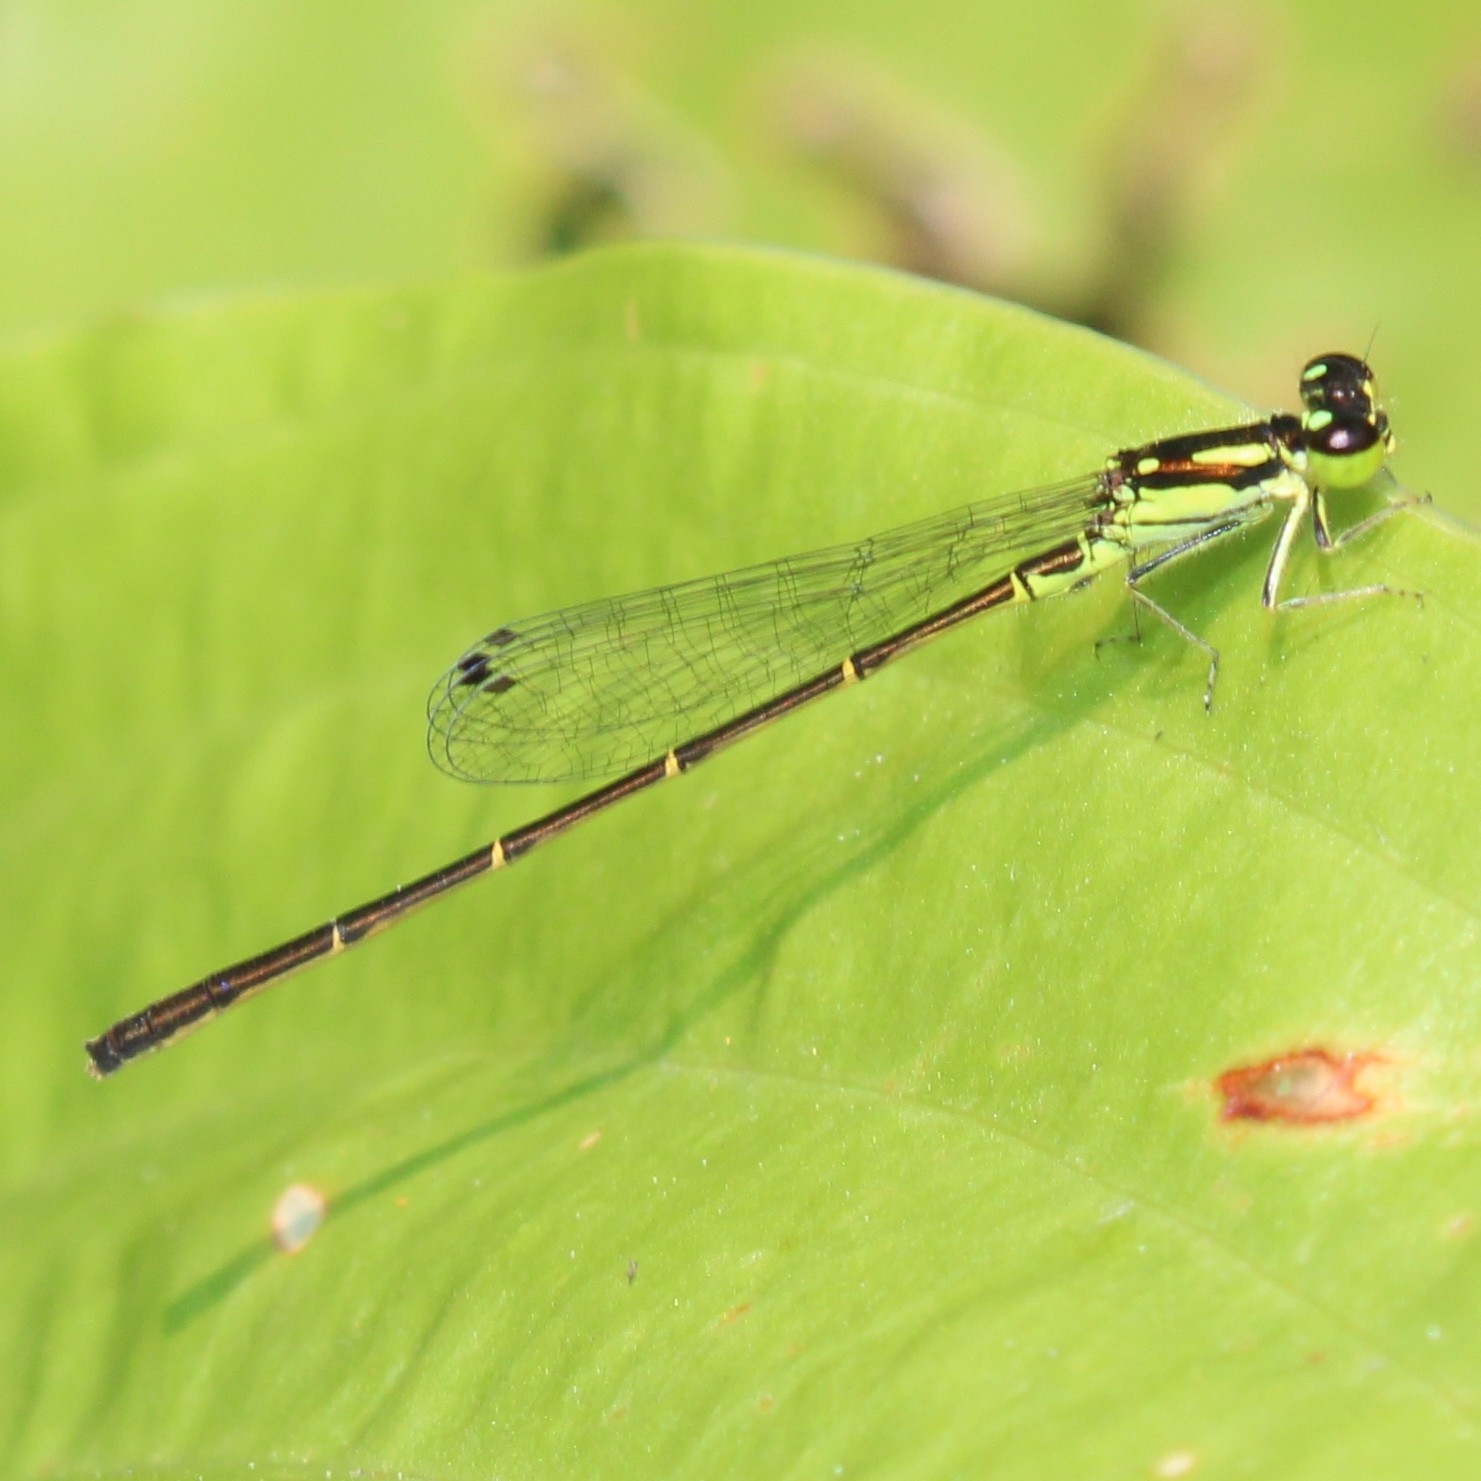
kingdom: Animalia
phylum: Arthropoda
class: Insecta
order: Odonata
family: Coenagrionidae
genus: Ischnura
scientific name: Ischnura posita
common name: Fragile forktail
